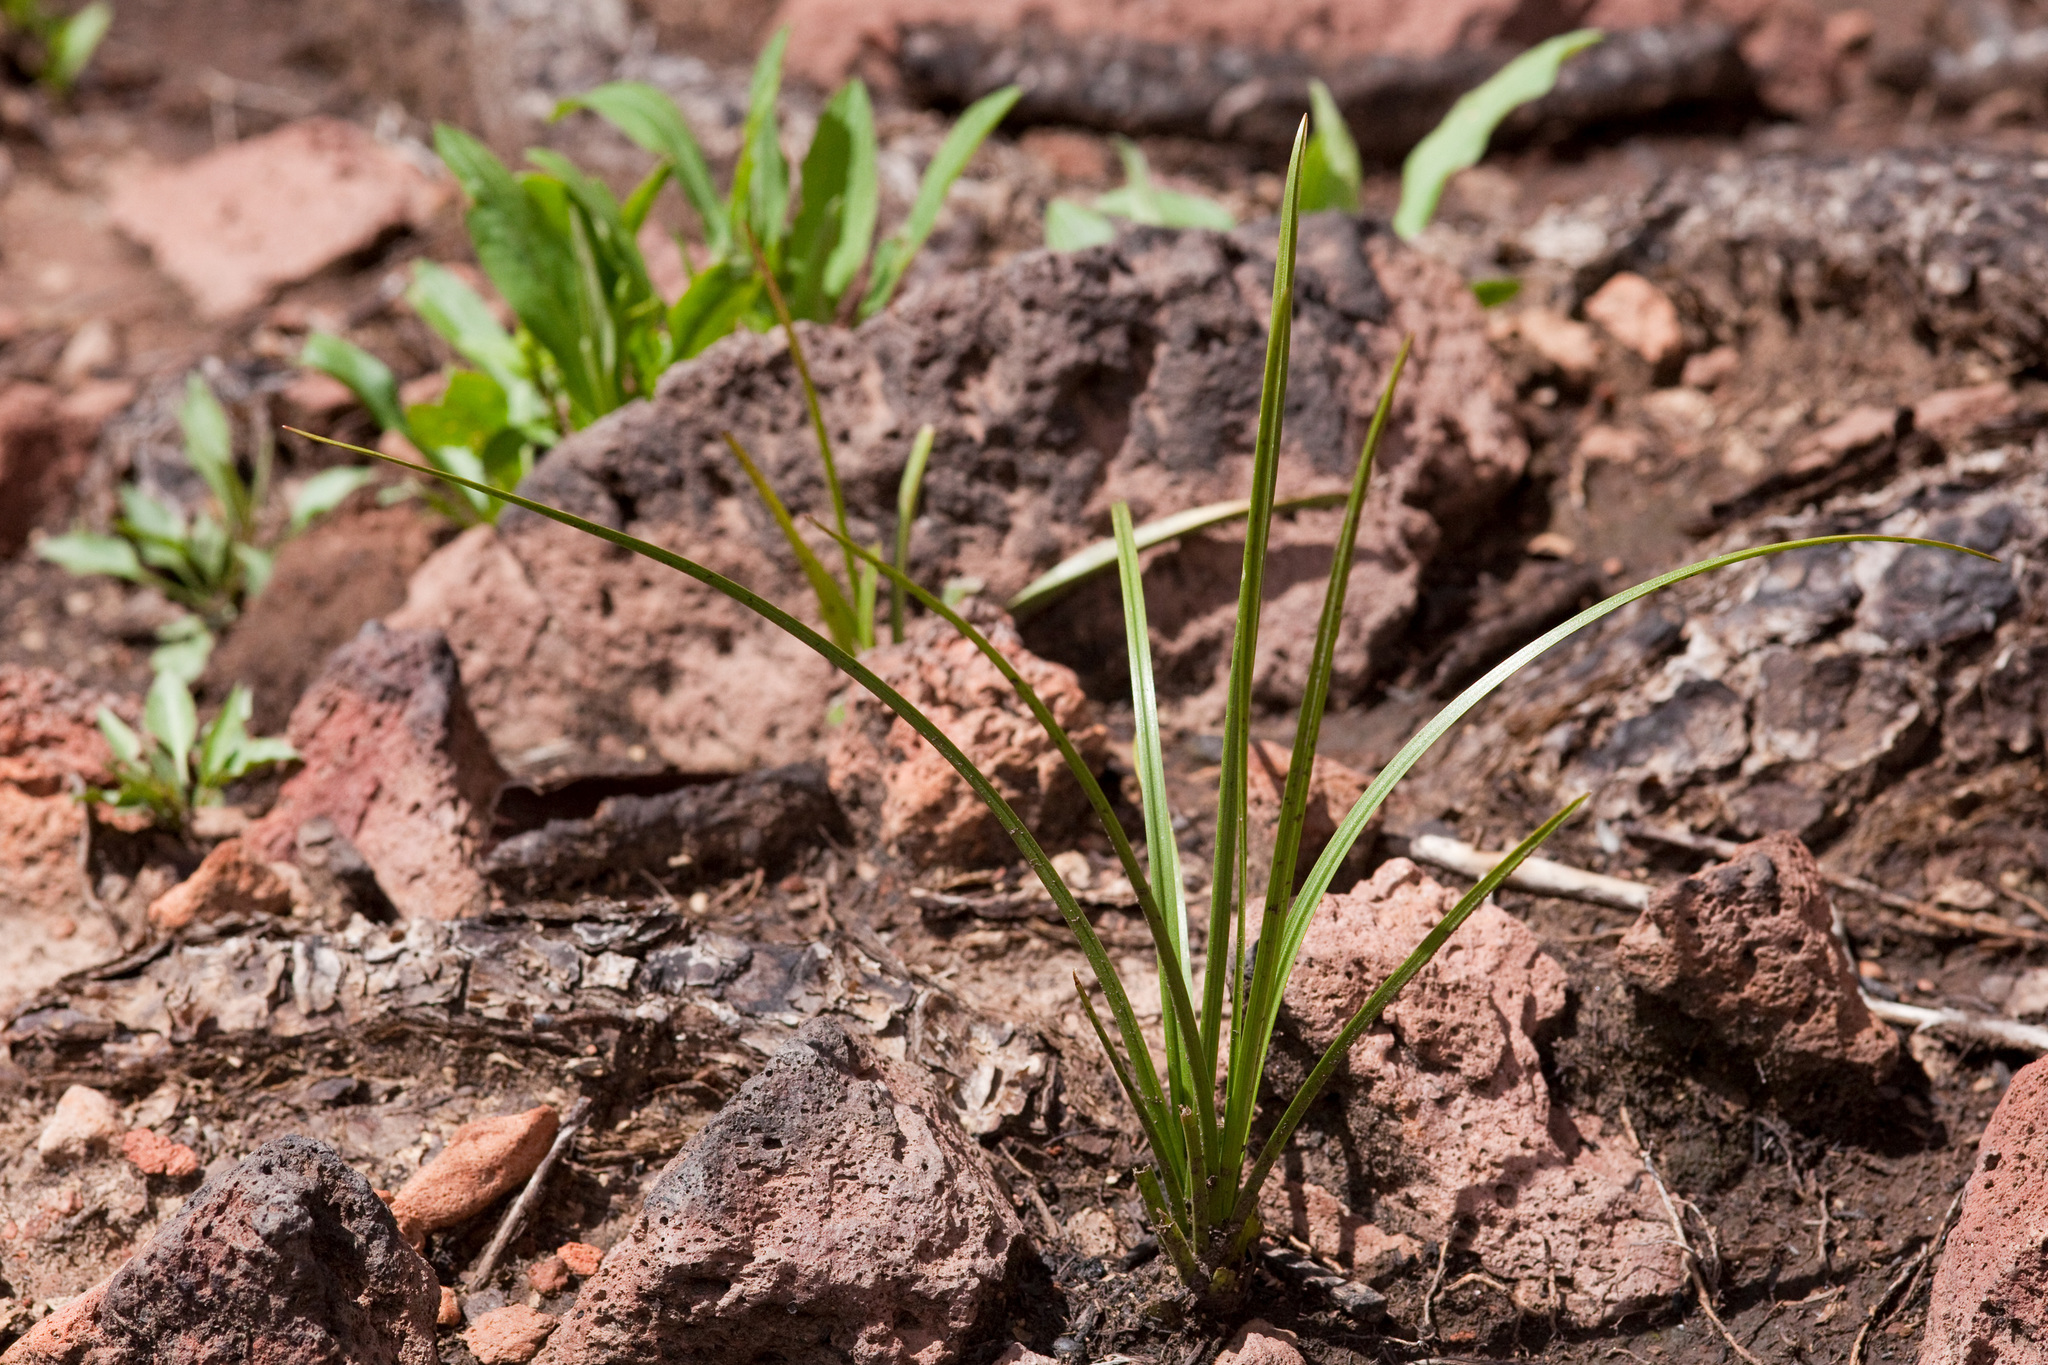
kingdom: Plantae
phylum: Tracheophyta
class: Liliopsida
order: Liliales
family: Melanthiaceae
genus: Anticlea
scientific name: Anticlea virescens
